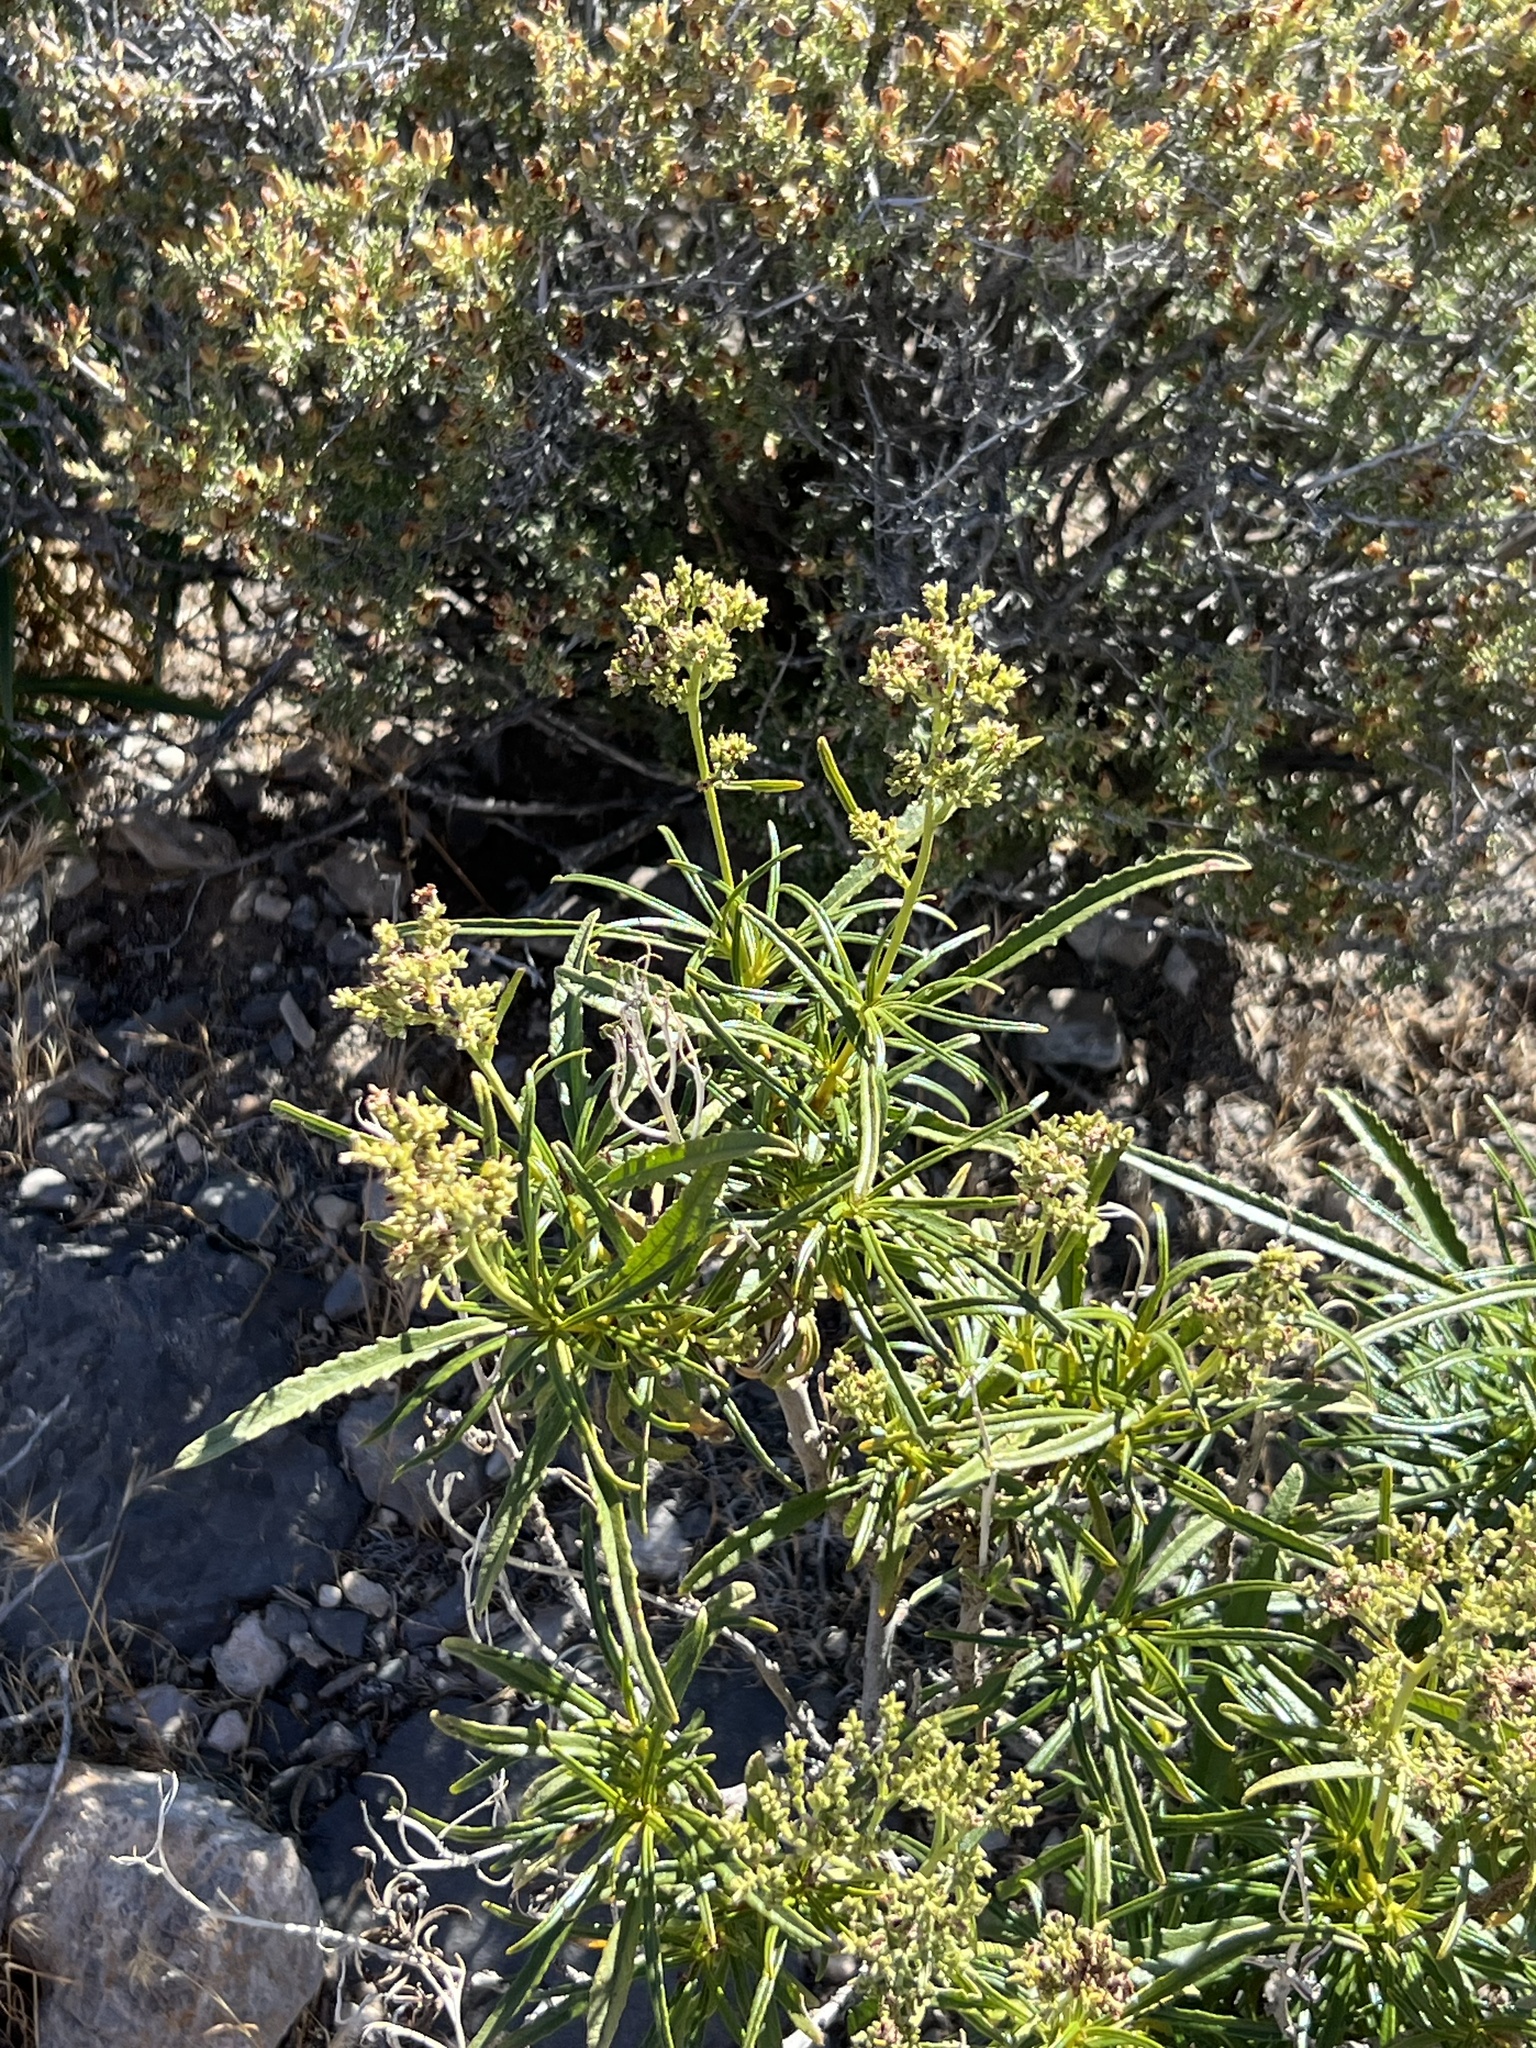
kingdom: Plantae
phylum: Tracheophyta
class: Magnoliopsida
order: Boraginales
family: Namaceae
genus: Eriodictyon
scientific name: Eriodictyon angustifolium
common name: Narrow-leaf yerba santa
